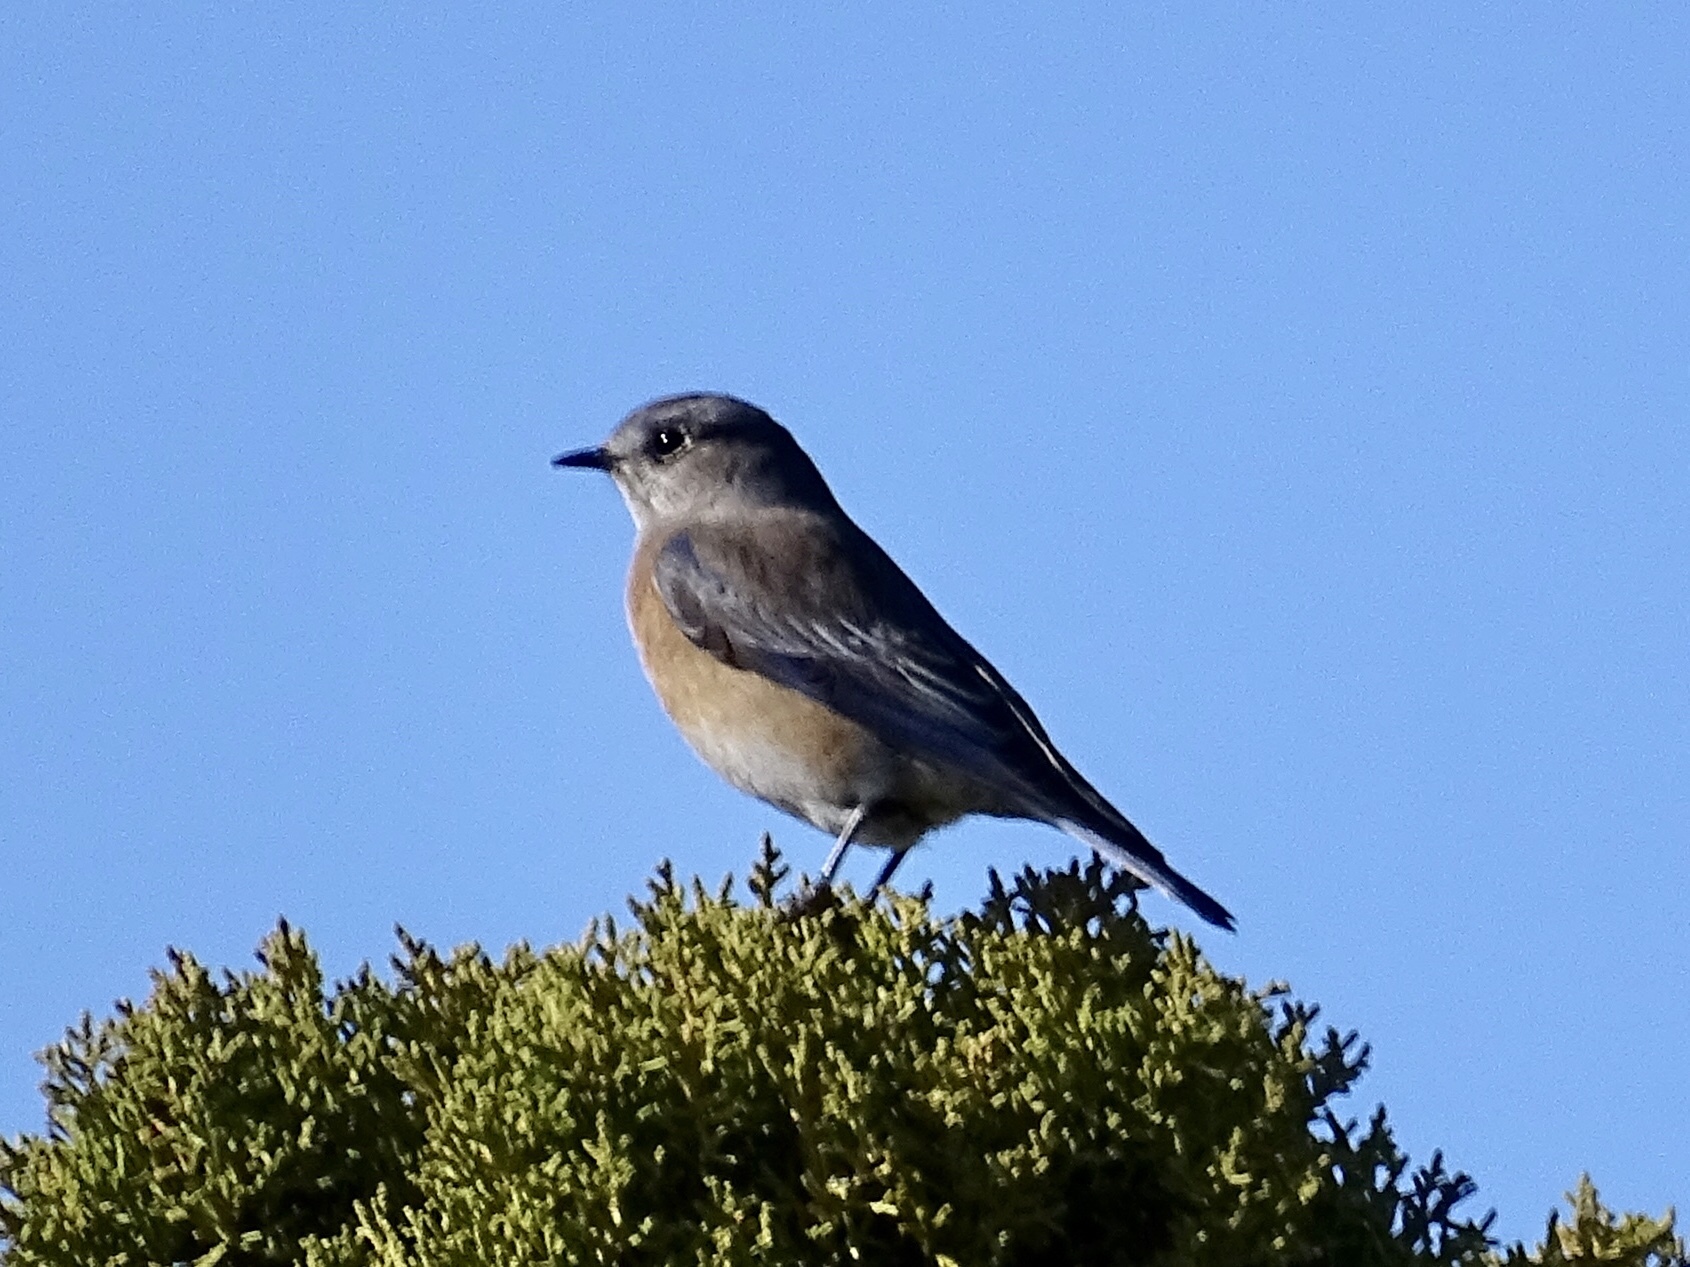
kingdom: Animalia
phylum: Chordata
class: Aves
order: Passeriformes
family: Turdidae
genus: Sialia
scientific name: Sialia mexicana
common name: Western bluebird
